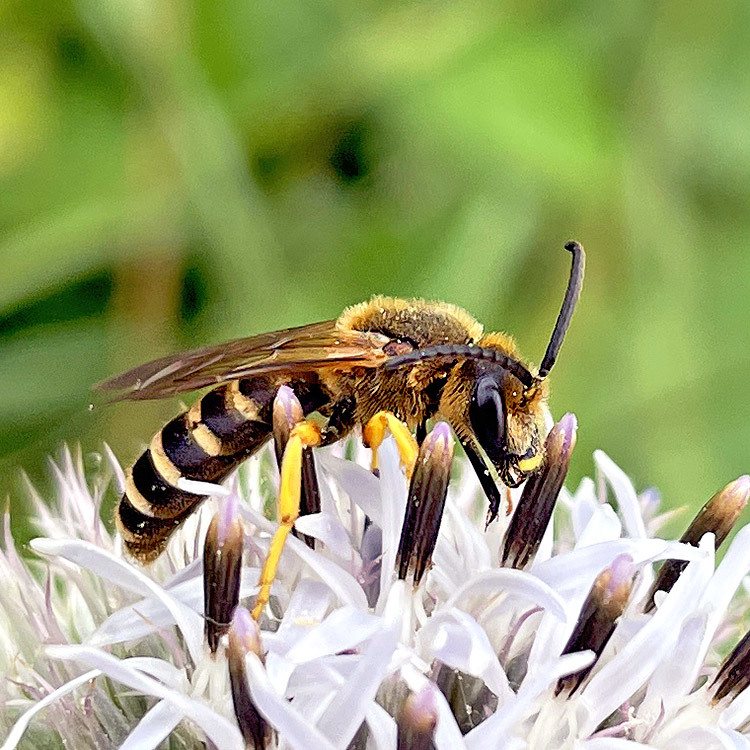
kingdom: Animalia
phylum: Arthropoda
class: Insecta
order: Hymenoptera
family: Halictidae
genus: Halictus
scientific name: Halictus scabiosae
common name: Great banded furrow bee
